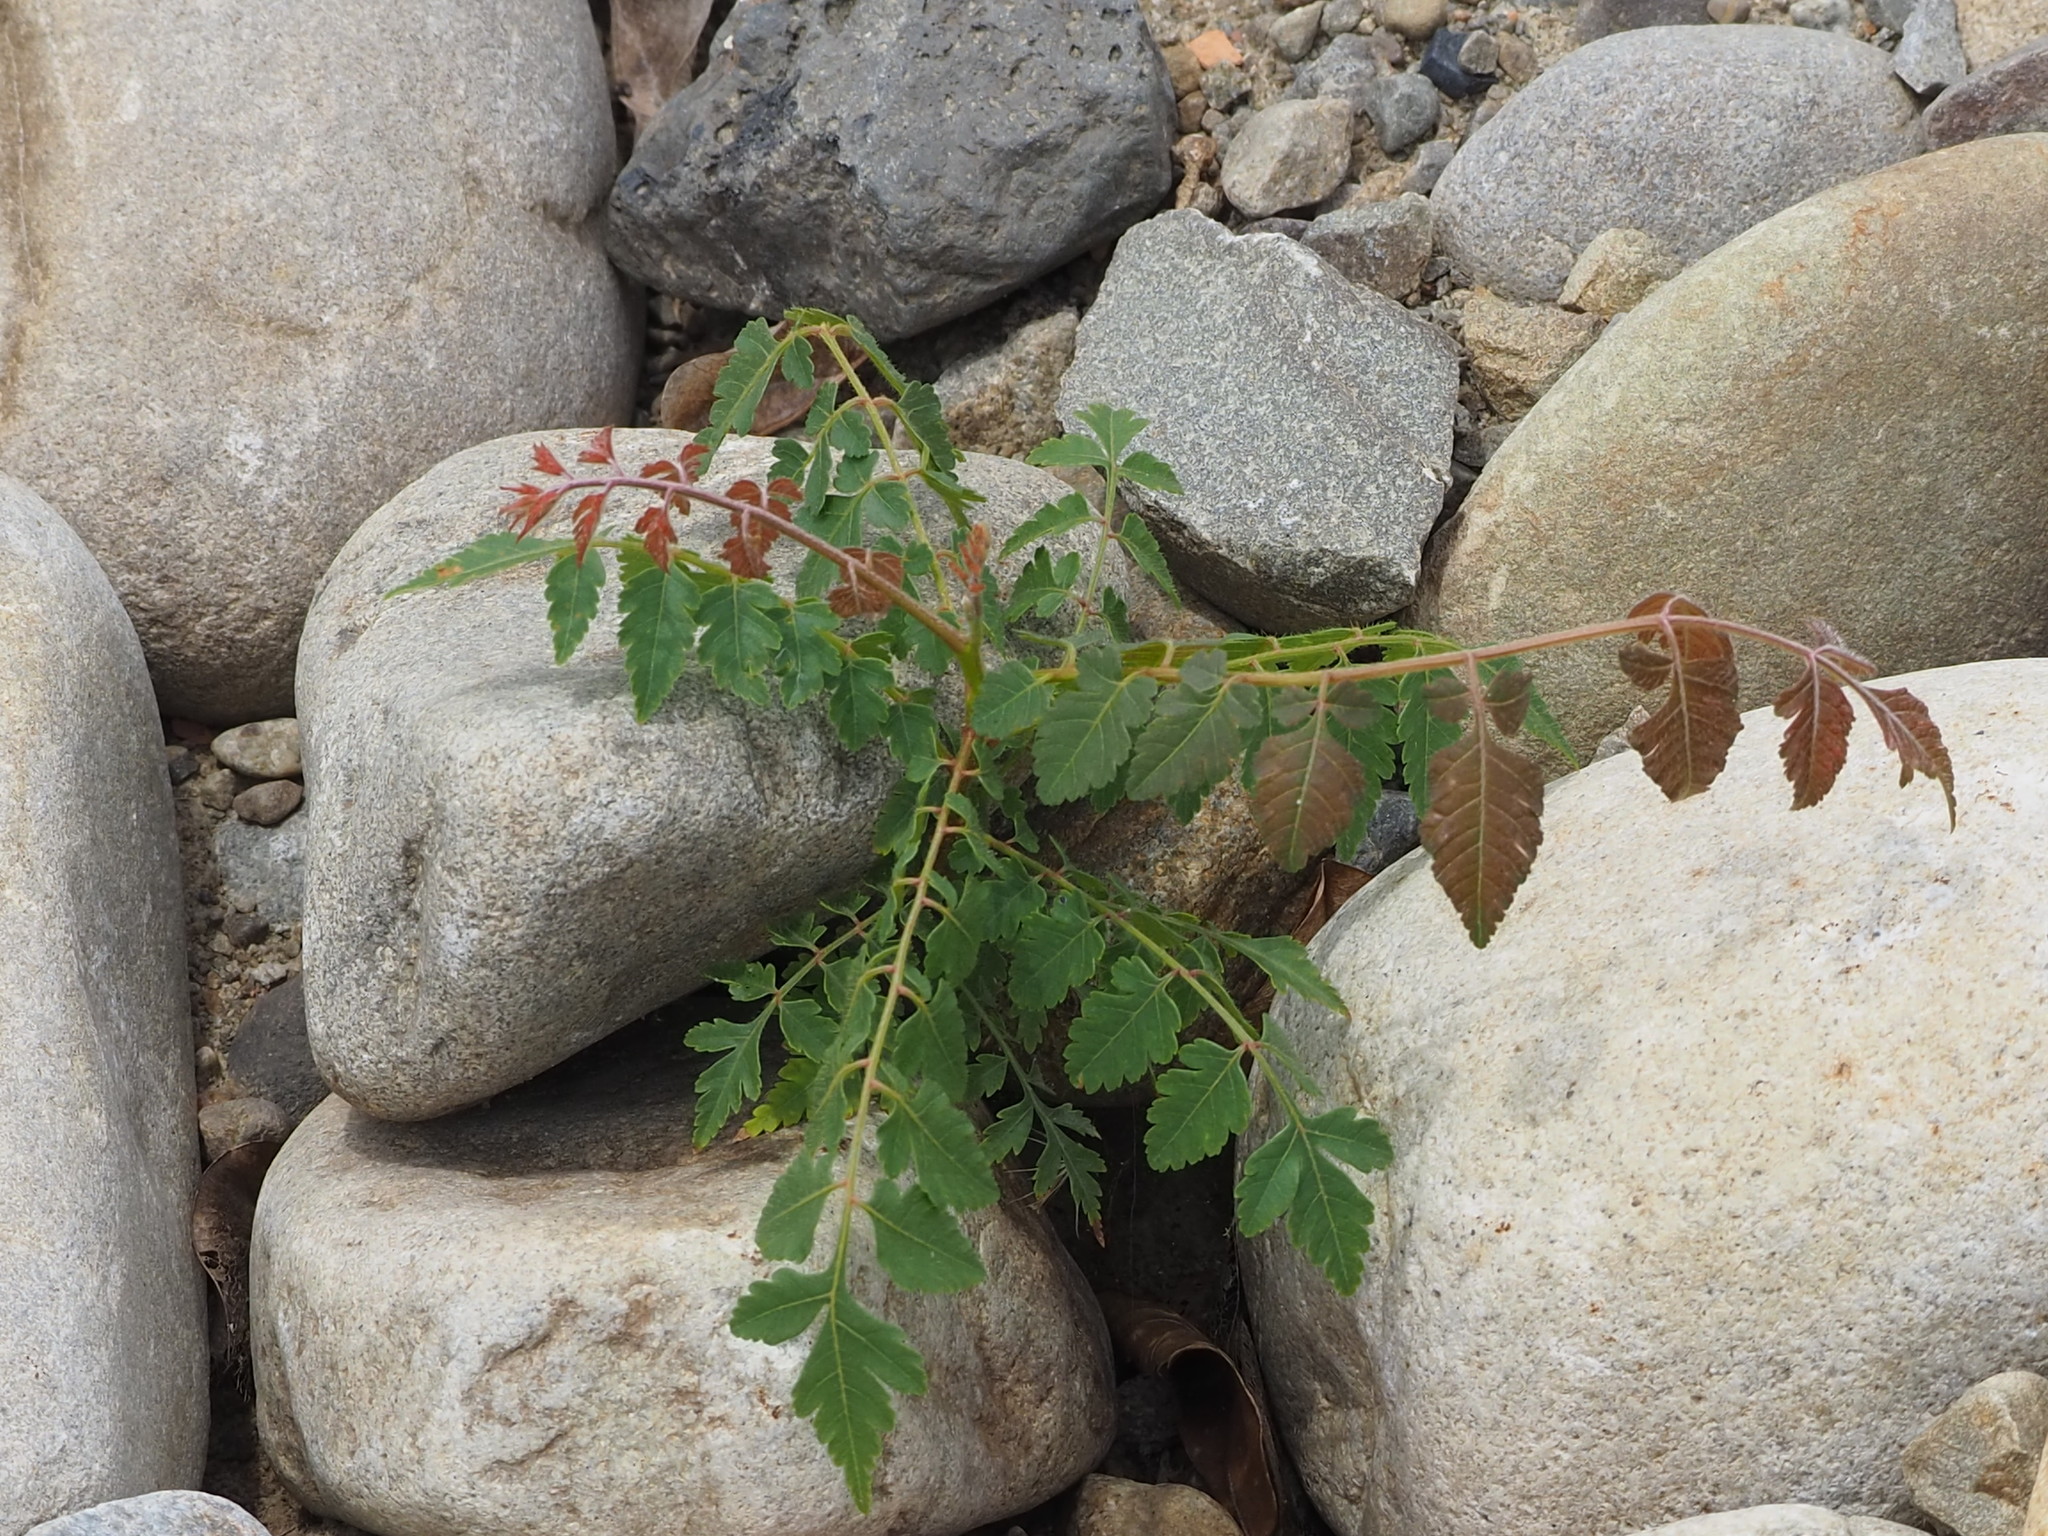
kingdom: Plantae
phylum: Tracheophyta
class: Magnoliopsida
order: Sapindales
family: Sapindaceae
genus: Koelreuteria
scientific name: Koelreuteria elegans
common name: Chinese flame tree
